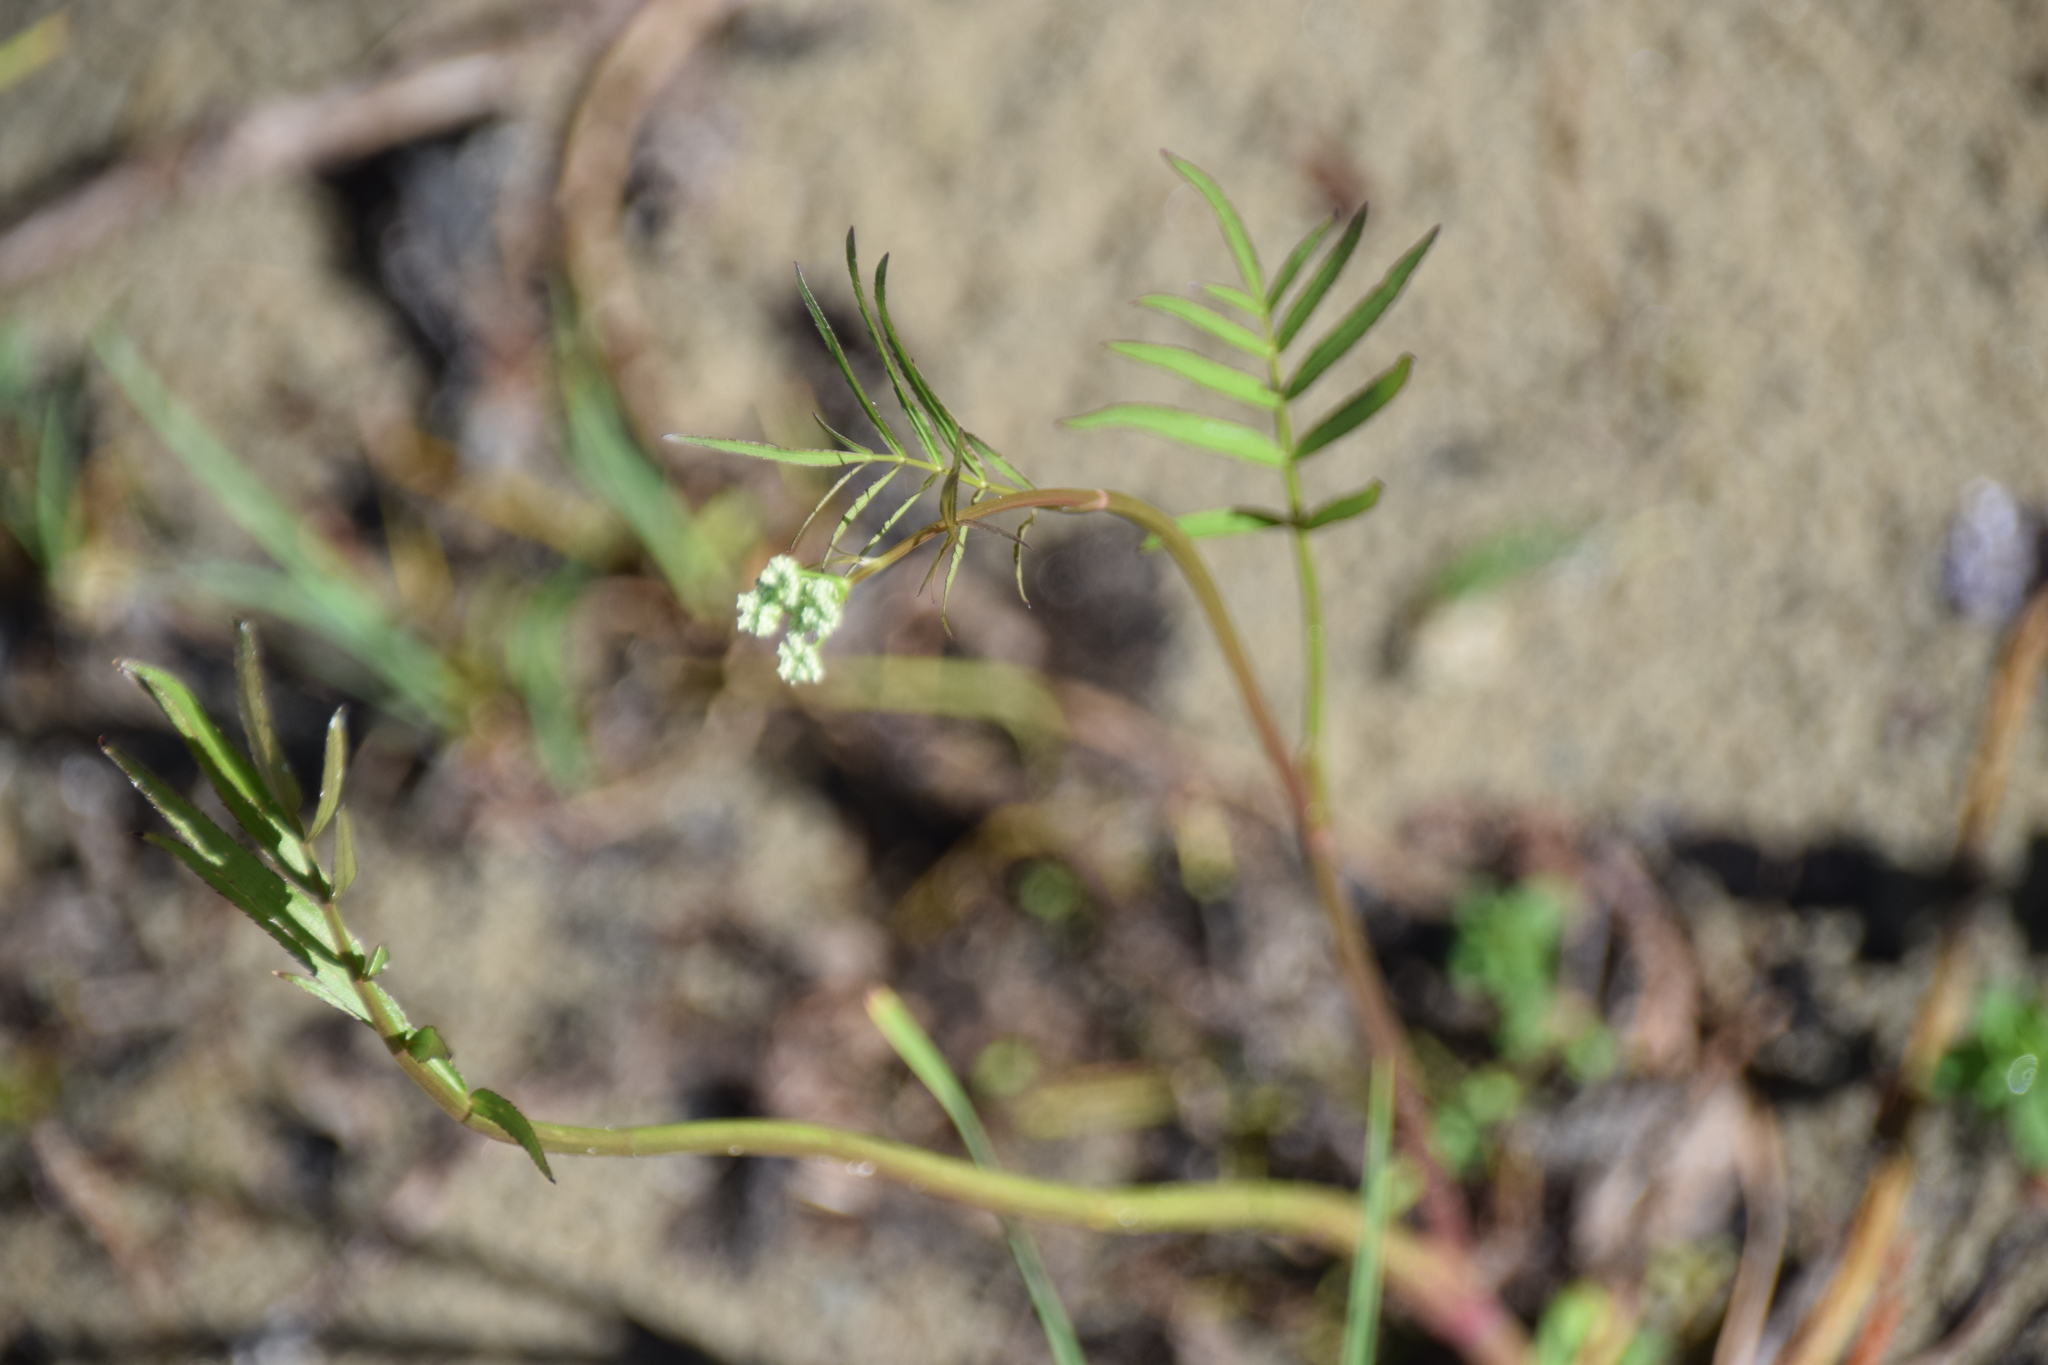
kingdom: Plantae
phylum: Tracheophyta
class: Magnoliopsida
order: Apiales
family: Apiaceae
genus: Sium
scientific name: Sium suave
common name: Hemlock water-parsnip
